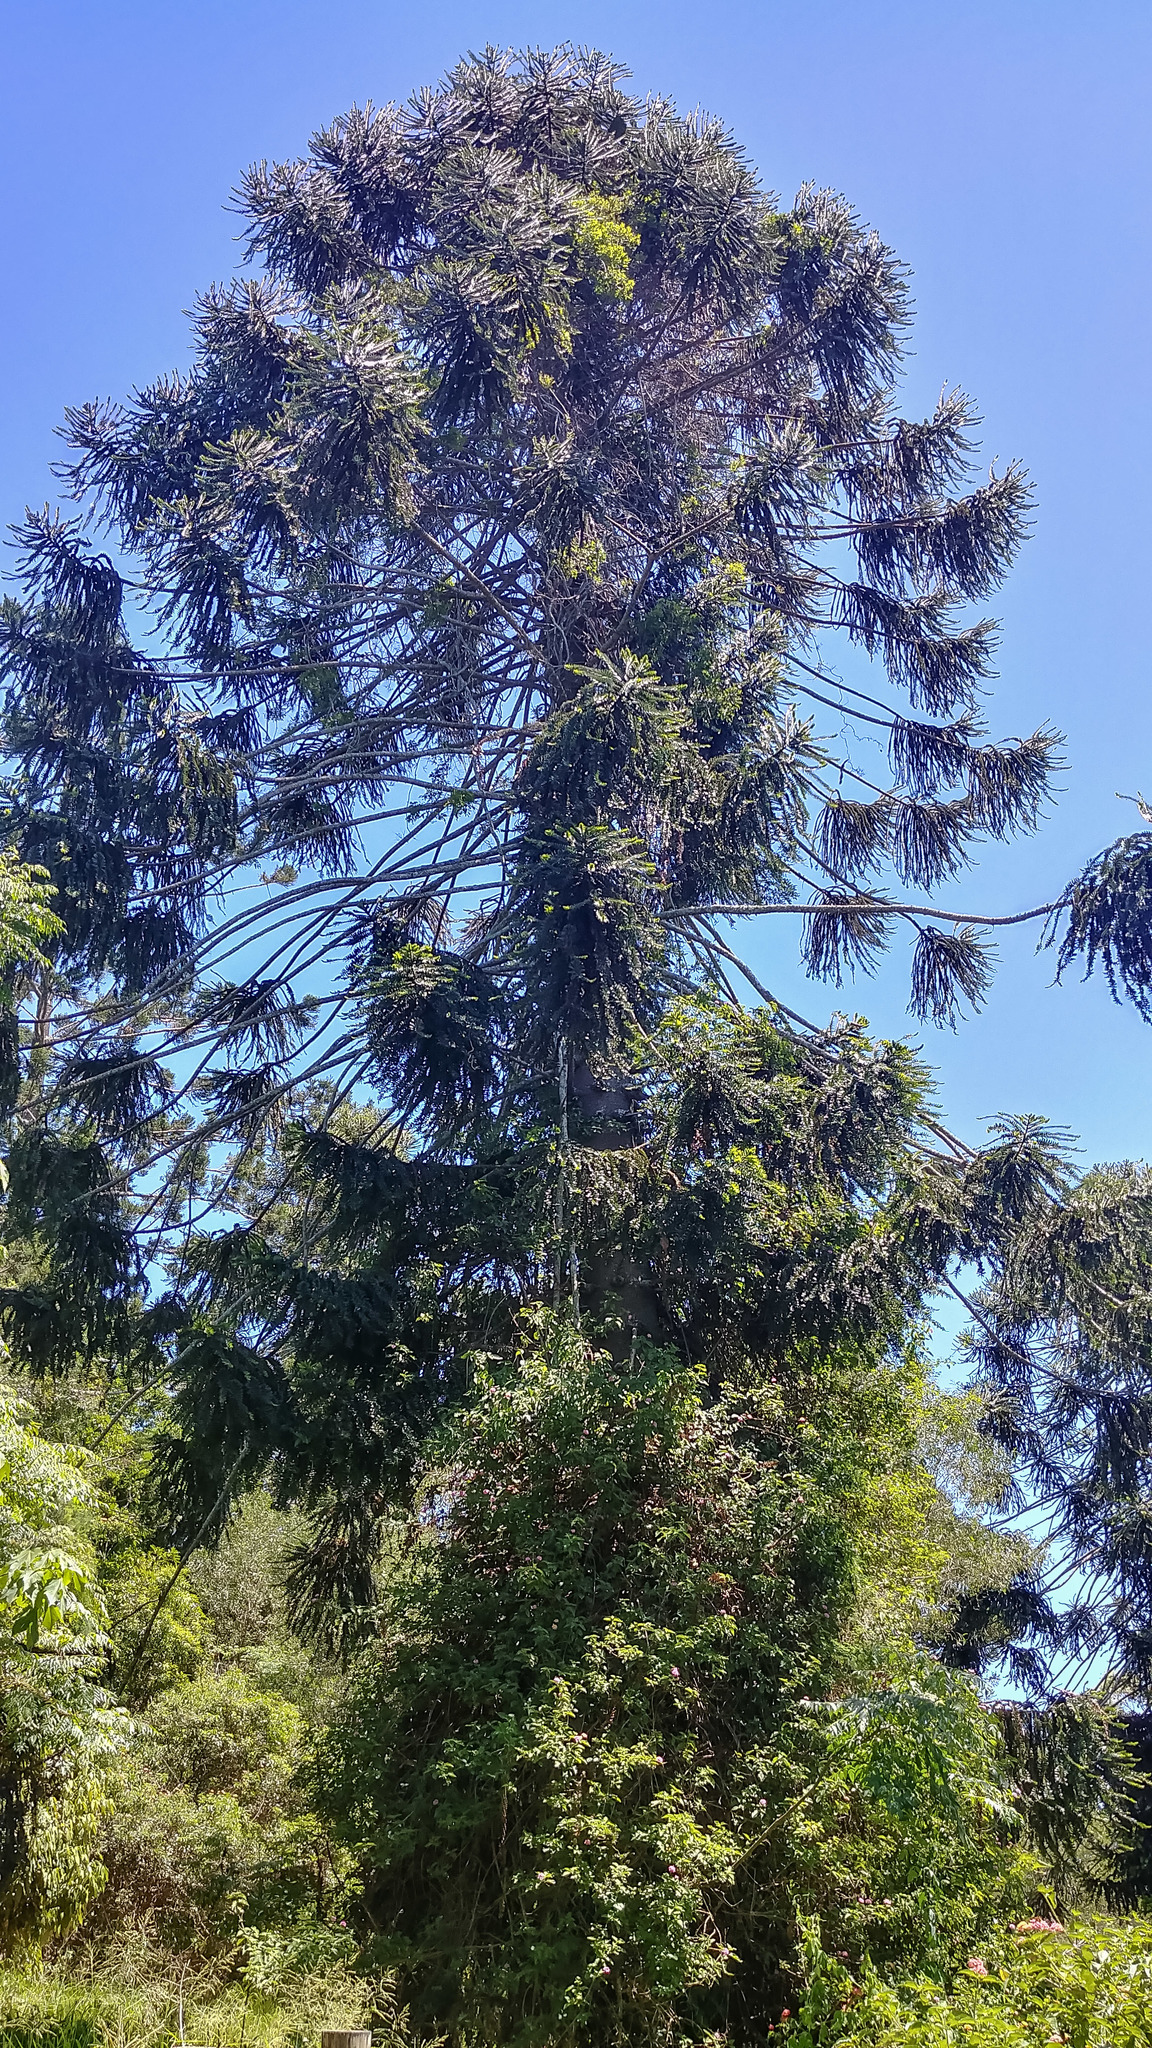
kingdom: Plantae
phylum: Tracheophyta
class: Pinopsida
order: Pinales
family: Araucariaceae
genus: Araucaria
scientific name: Araucaria bidwillii
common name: Moreton-bay-pine
